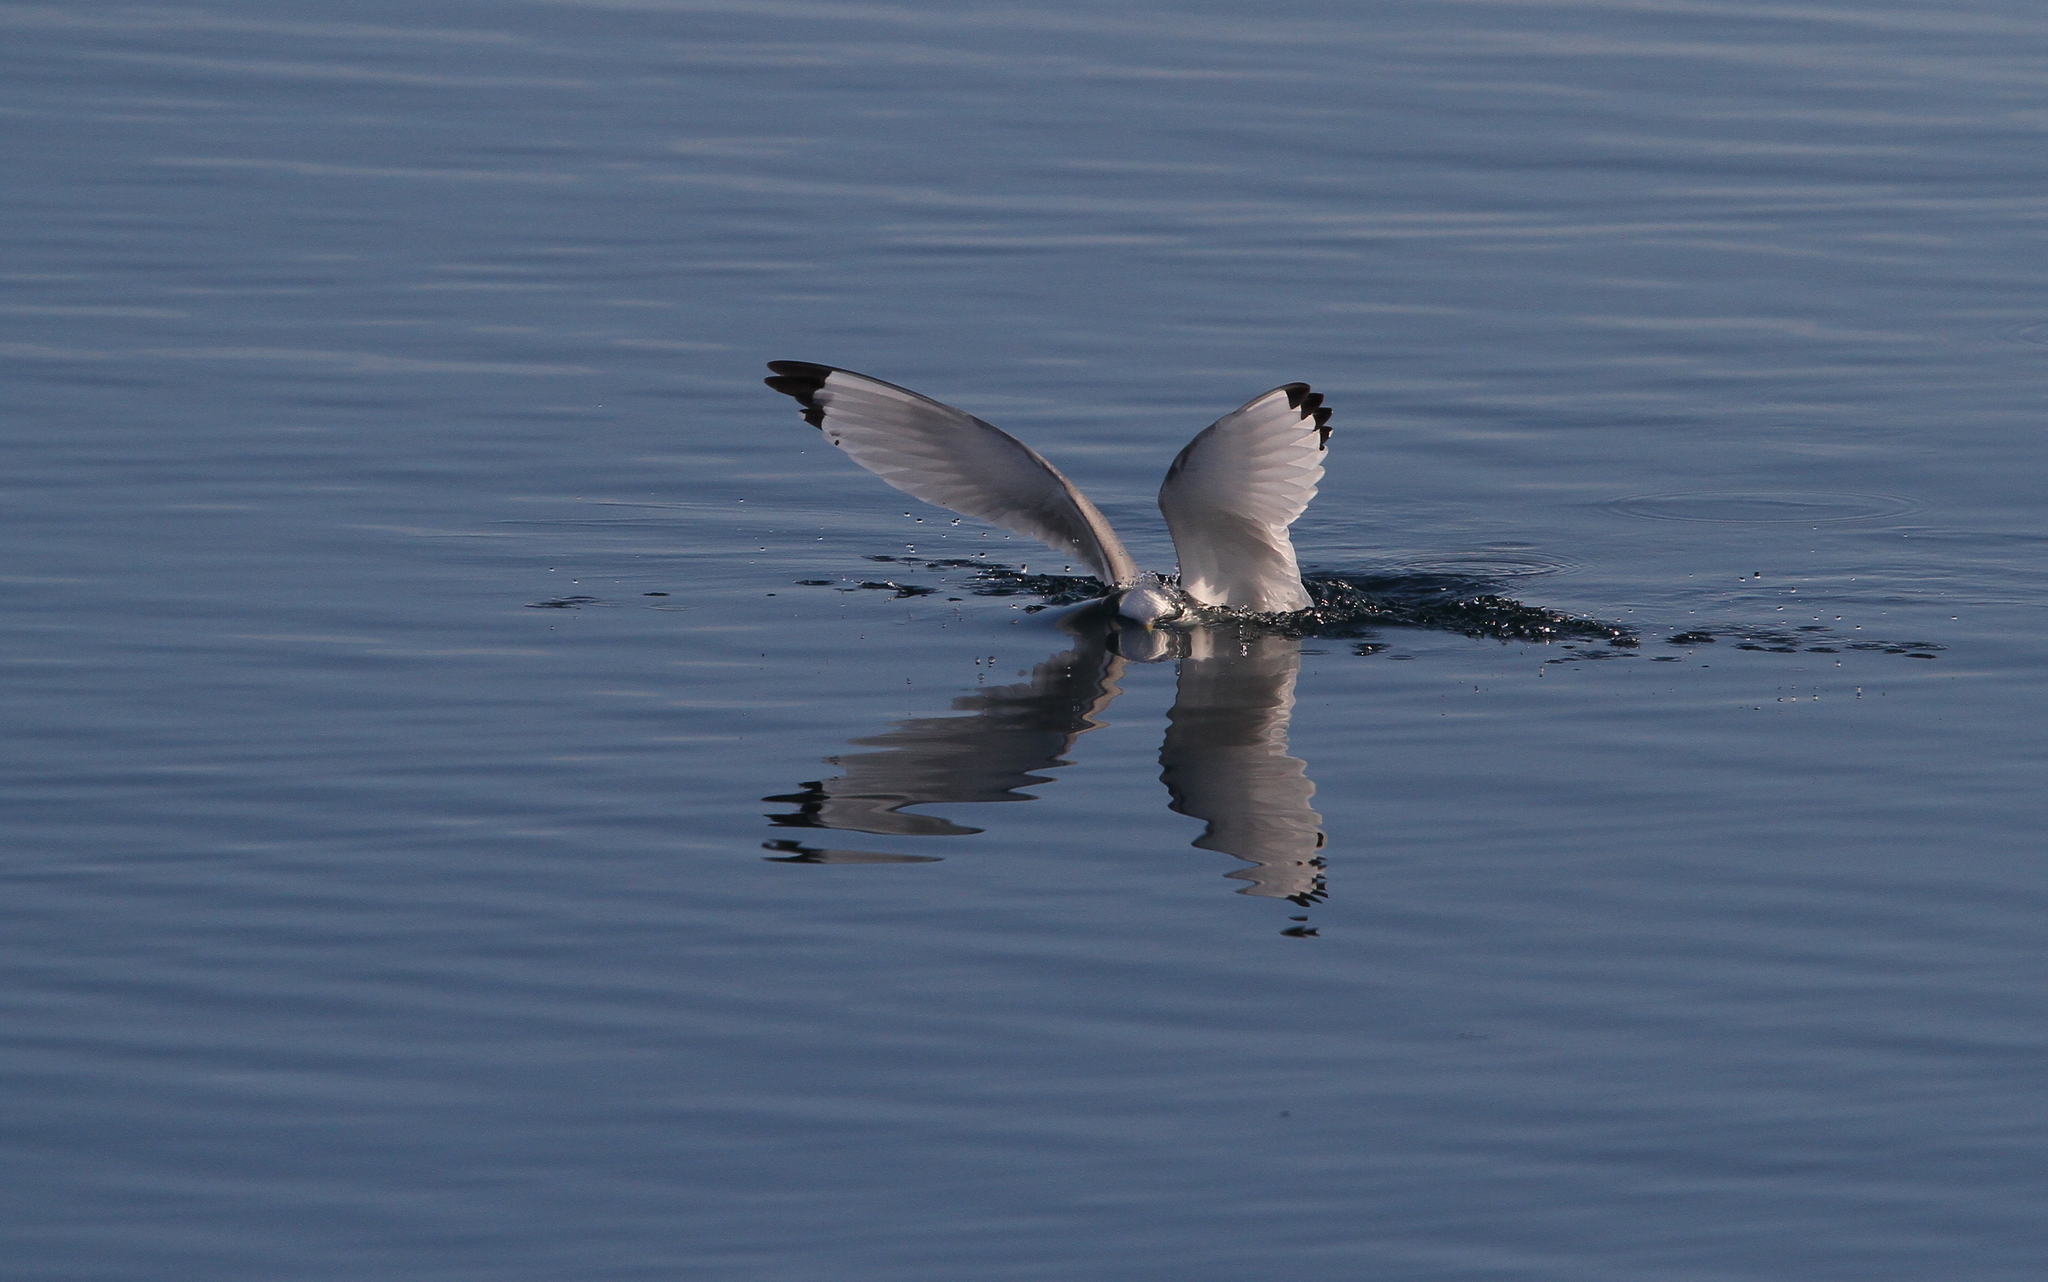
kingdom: Animalia
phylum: Chordata
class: Aves
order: Charadriiformes
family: Laridae
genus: Rissa
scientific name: Rissa tridactyla
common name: Black-legged kittiwake
